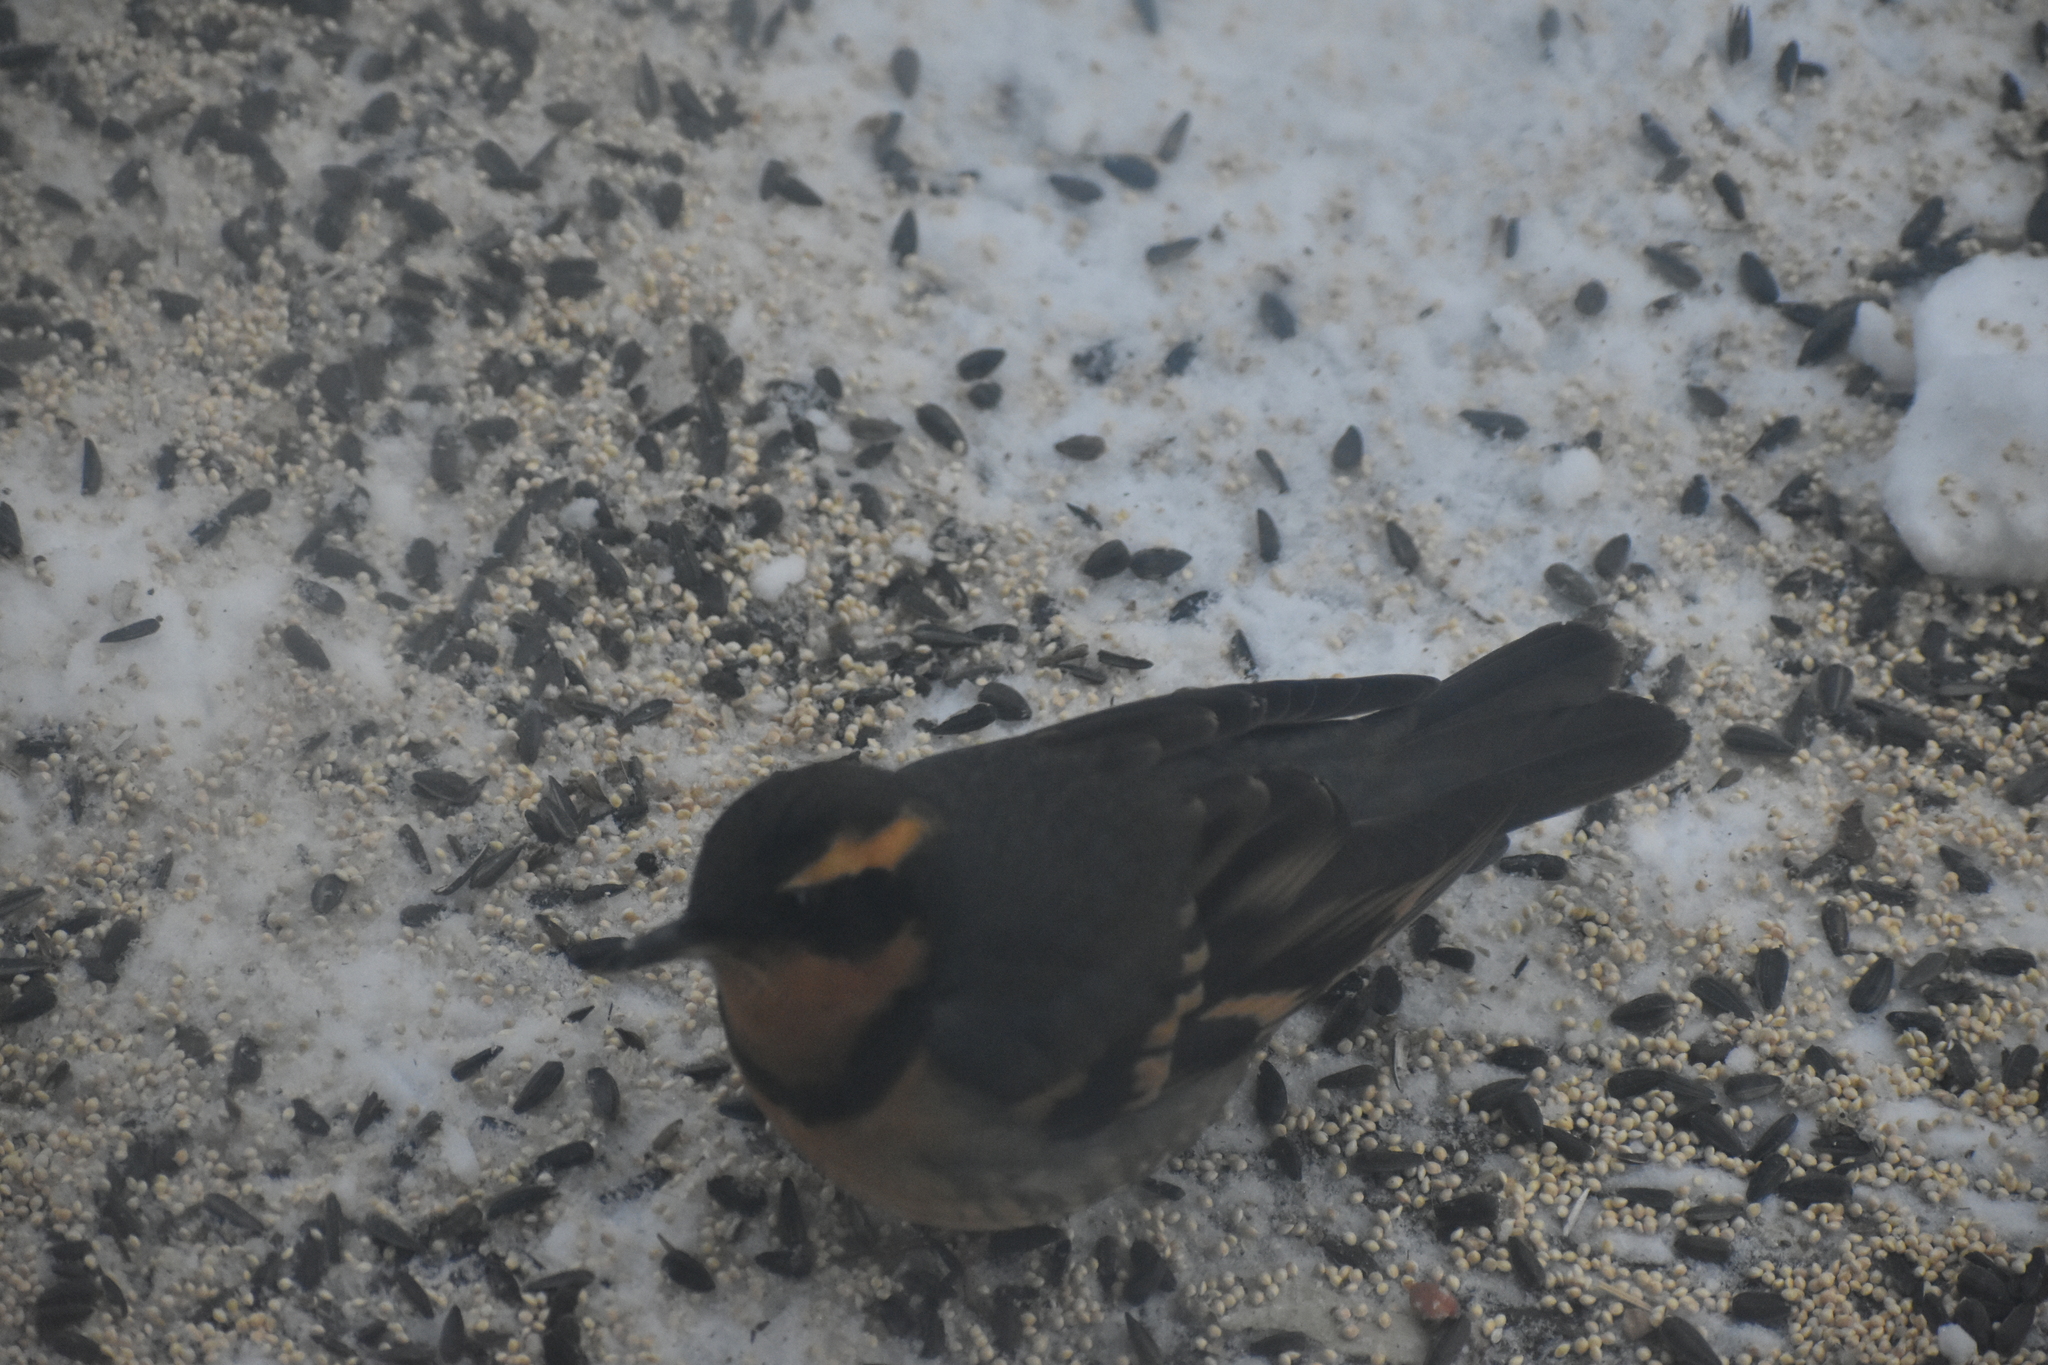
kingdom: Animalia
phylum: Chordata
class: Aves
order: Passeriformes
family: Turdidae
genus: Ixoreus
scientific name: Ixoreus naevius
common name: Varied thrush
